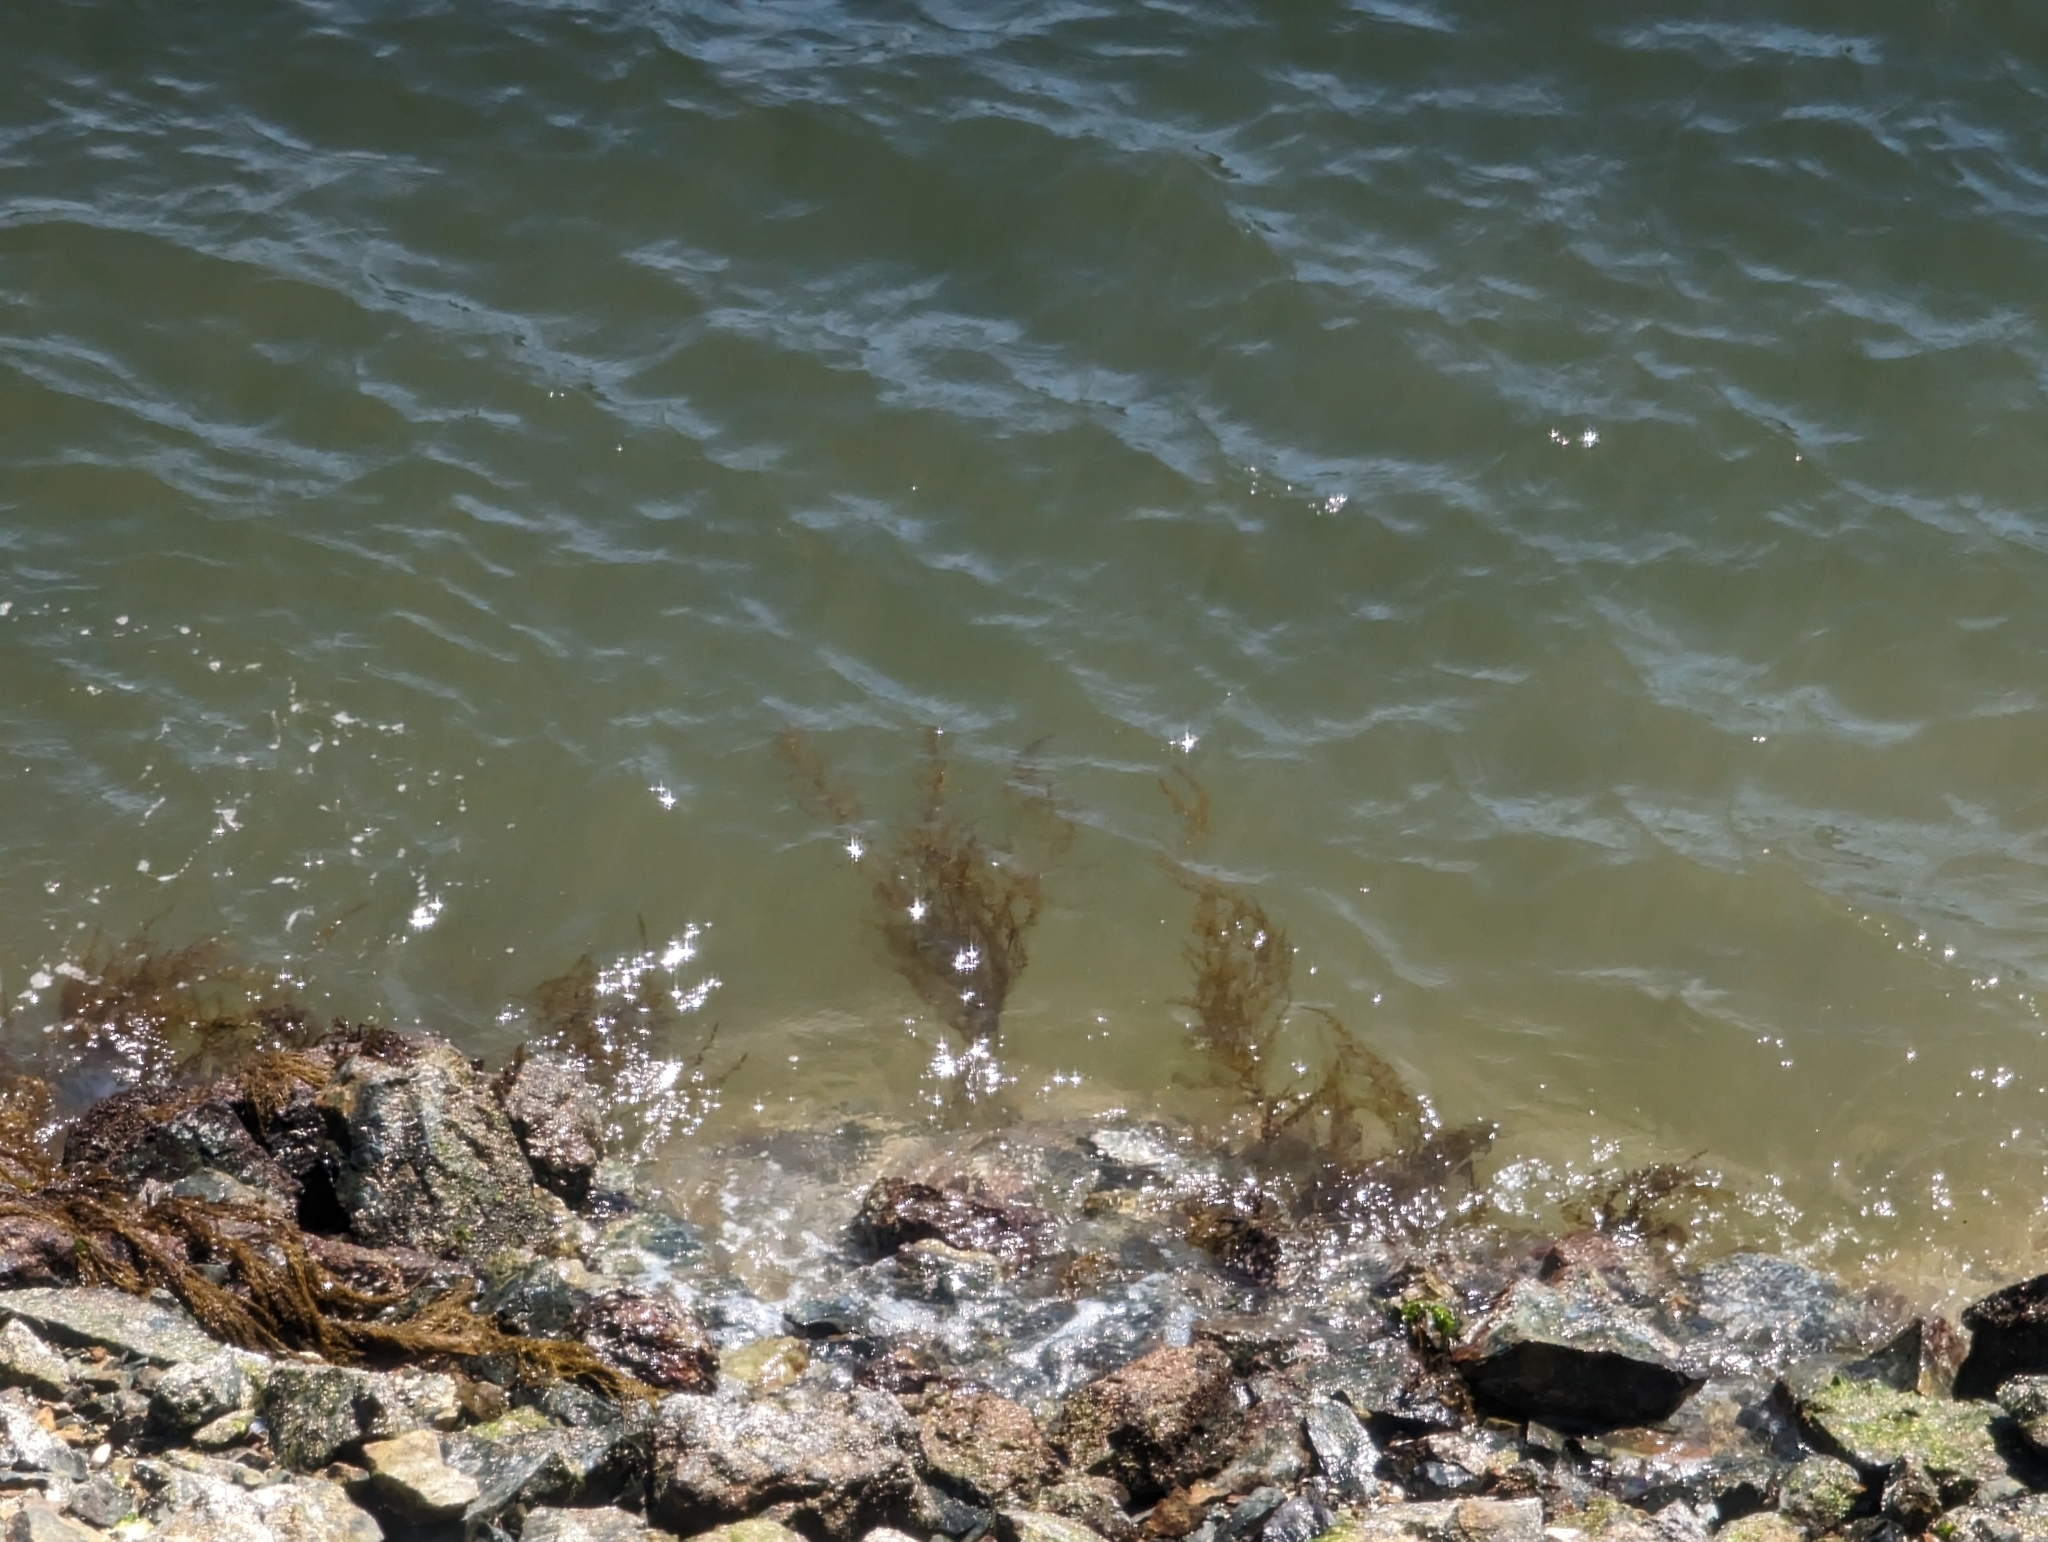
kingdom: Chromista
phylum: Ochrophyta
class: Phaeophyceae
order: Fucales
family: Sargassaceae
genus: Sargassum
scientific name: Sargassum muticum
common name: Japweed
